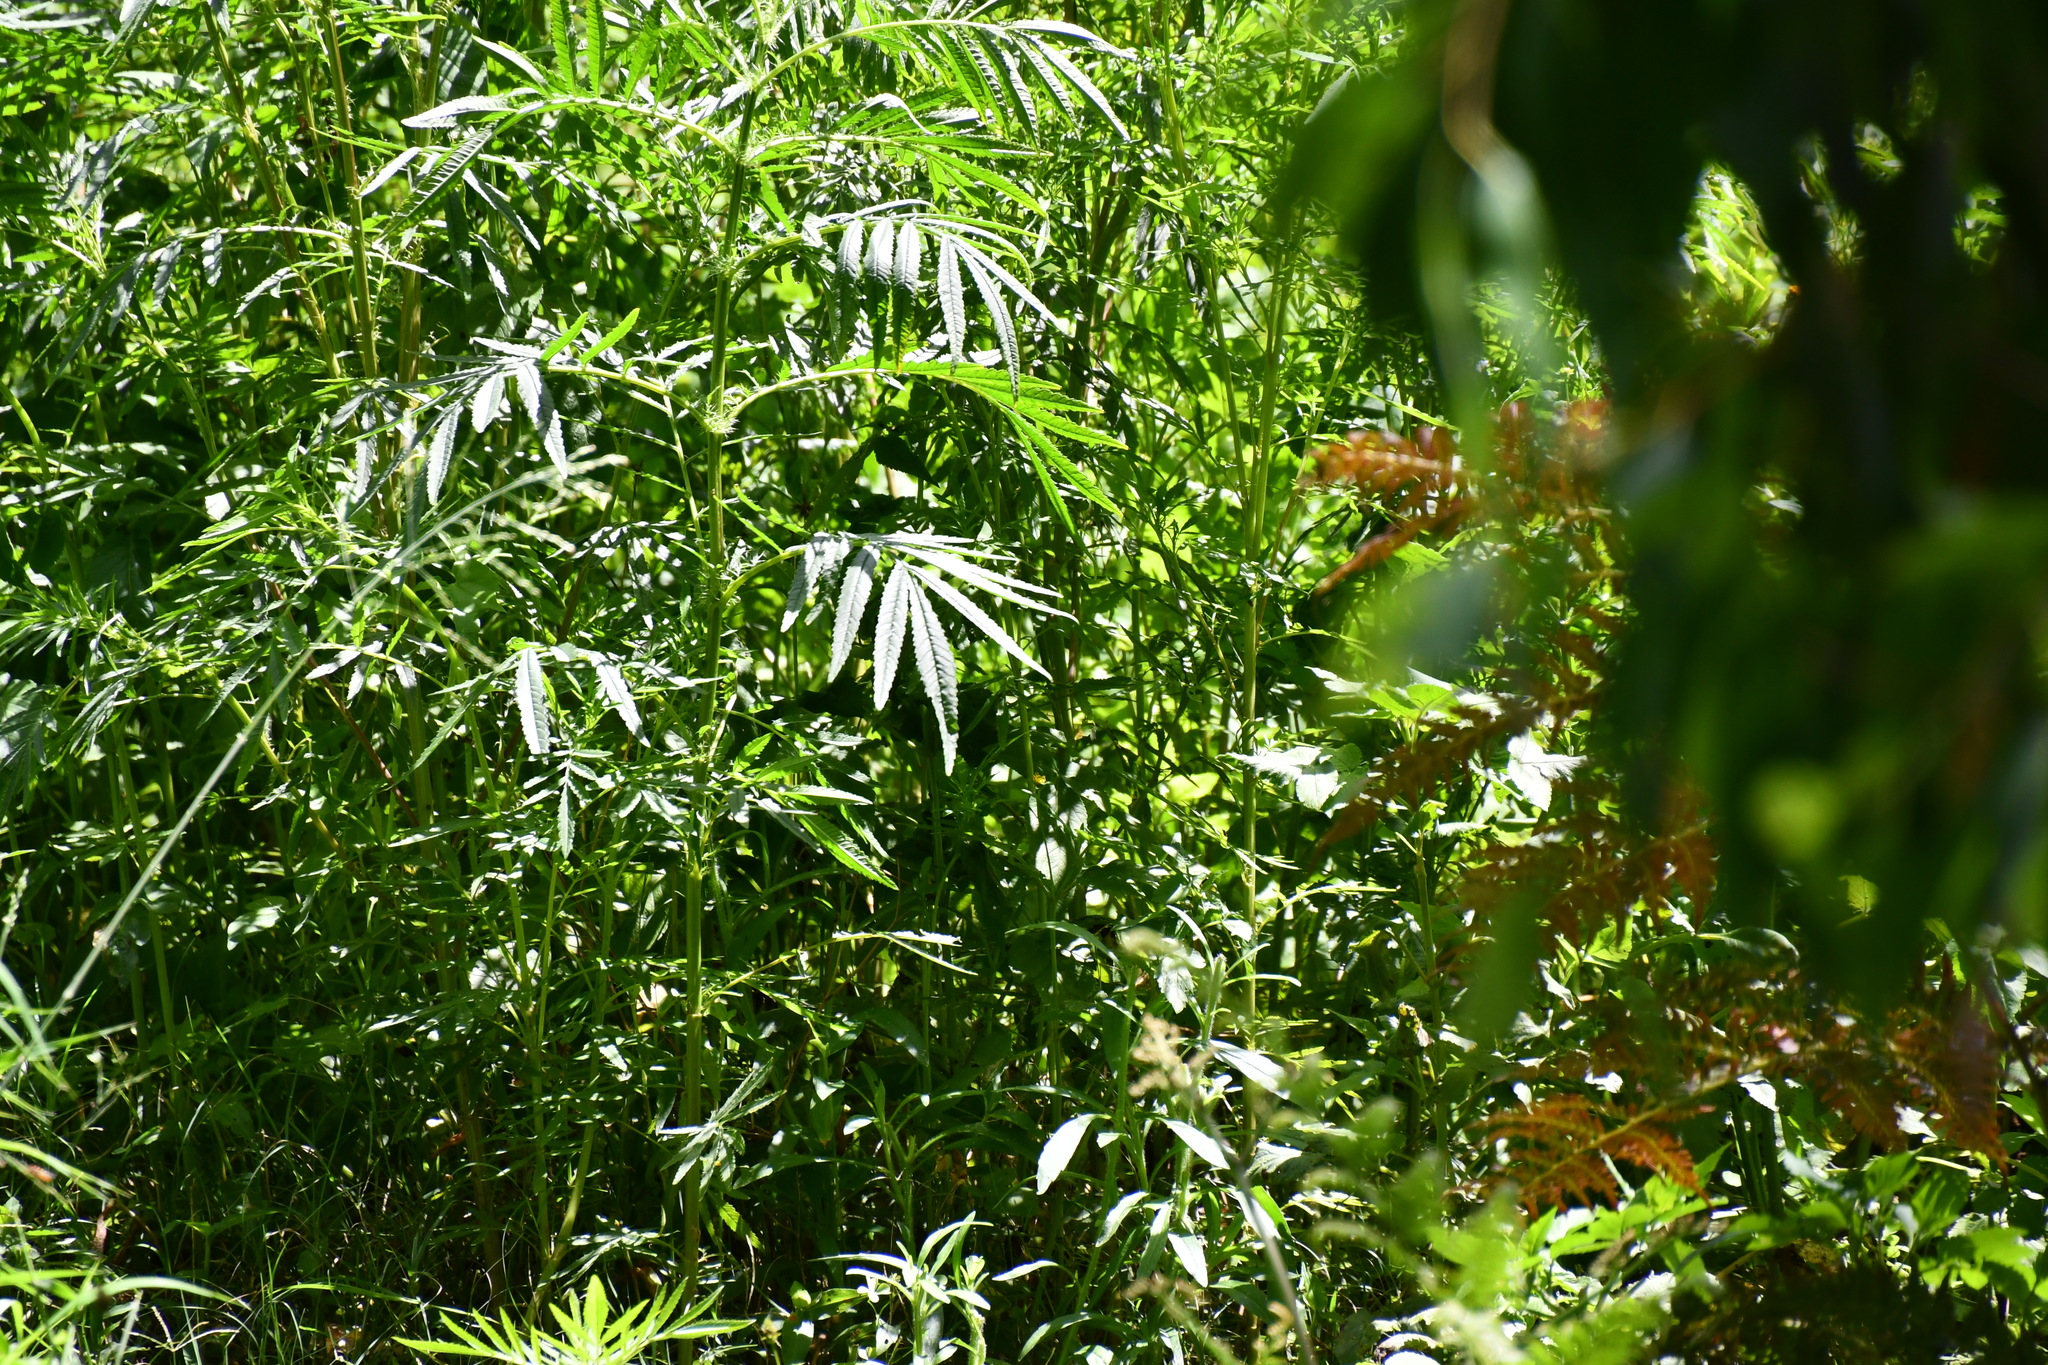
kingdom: Plantae
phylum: Tracheophyta
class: Magnoliopsida
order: Asterales
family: Asteraceae
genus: Tagetes
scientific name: Tagetes minuta
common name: Muster john henry
